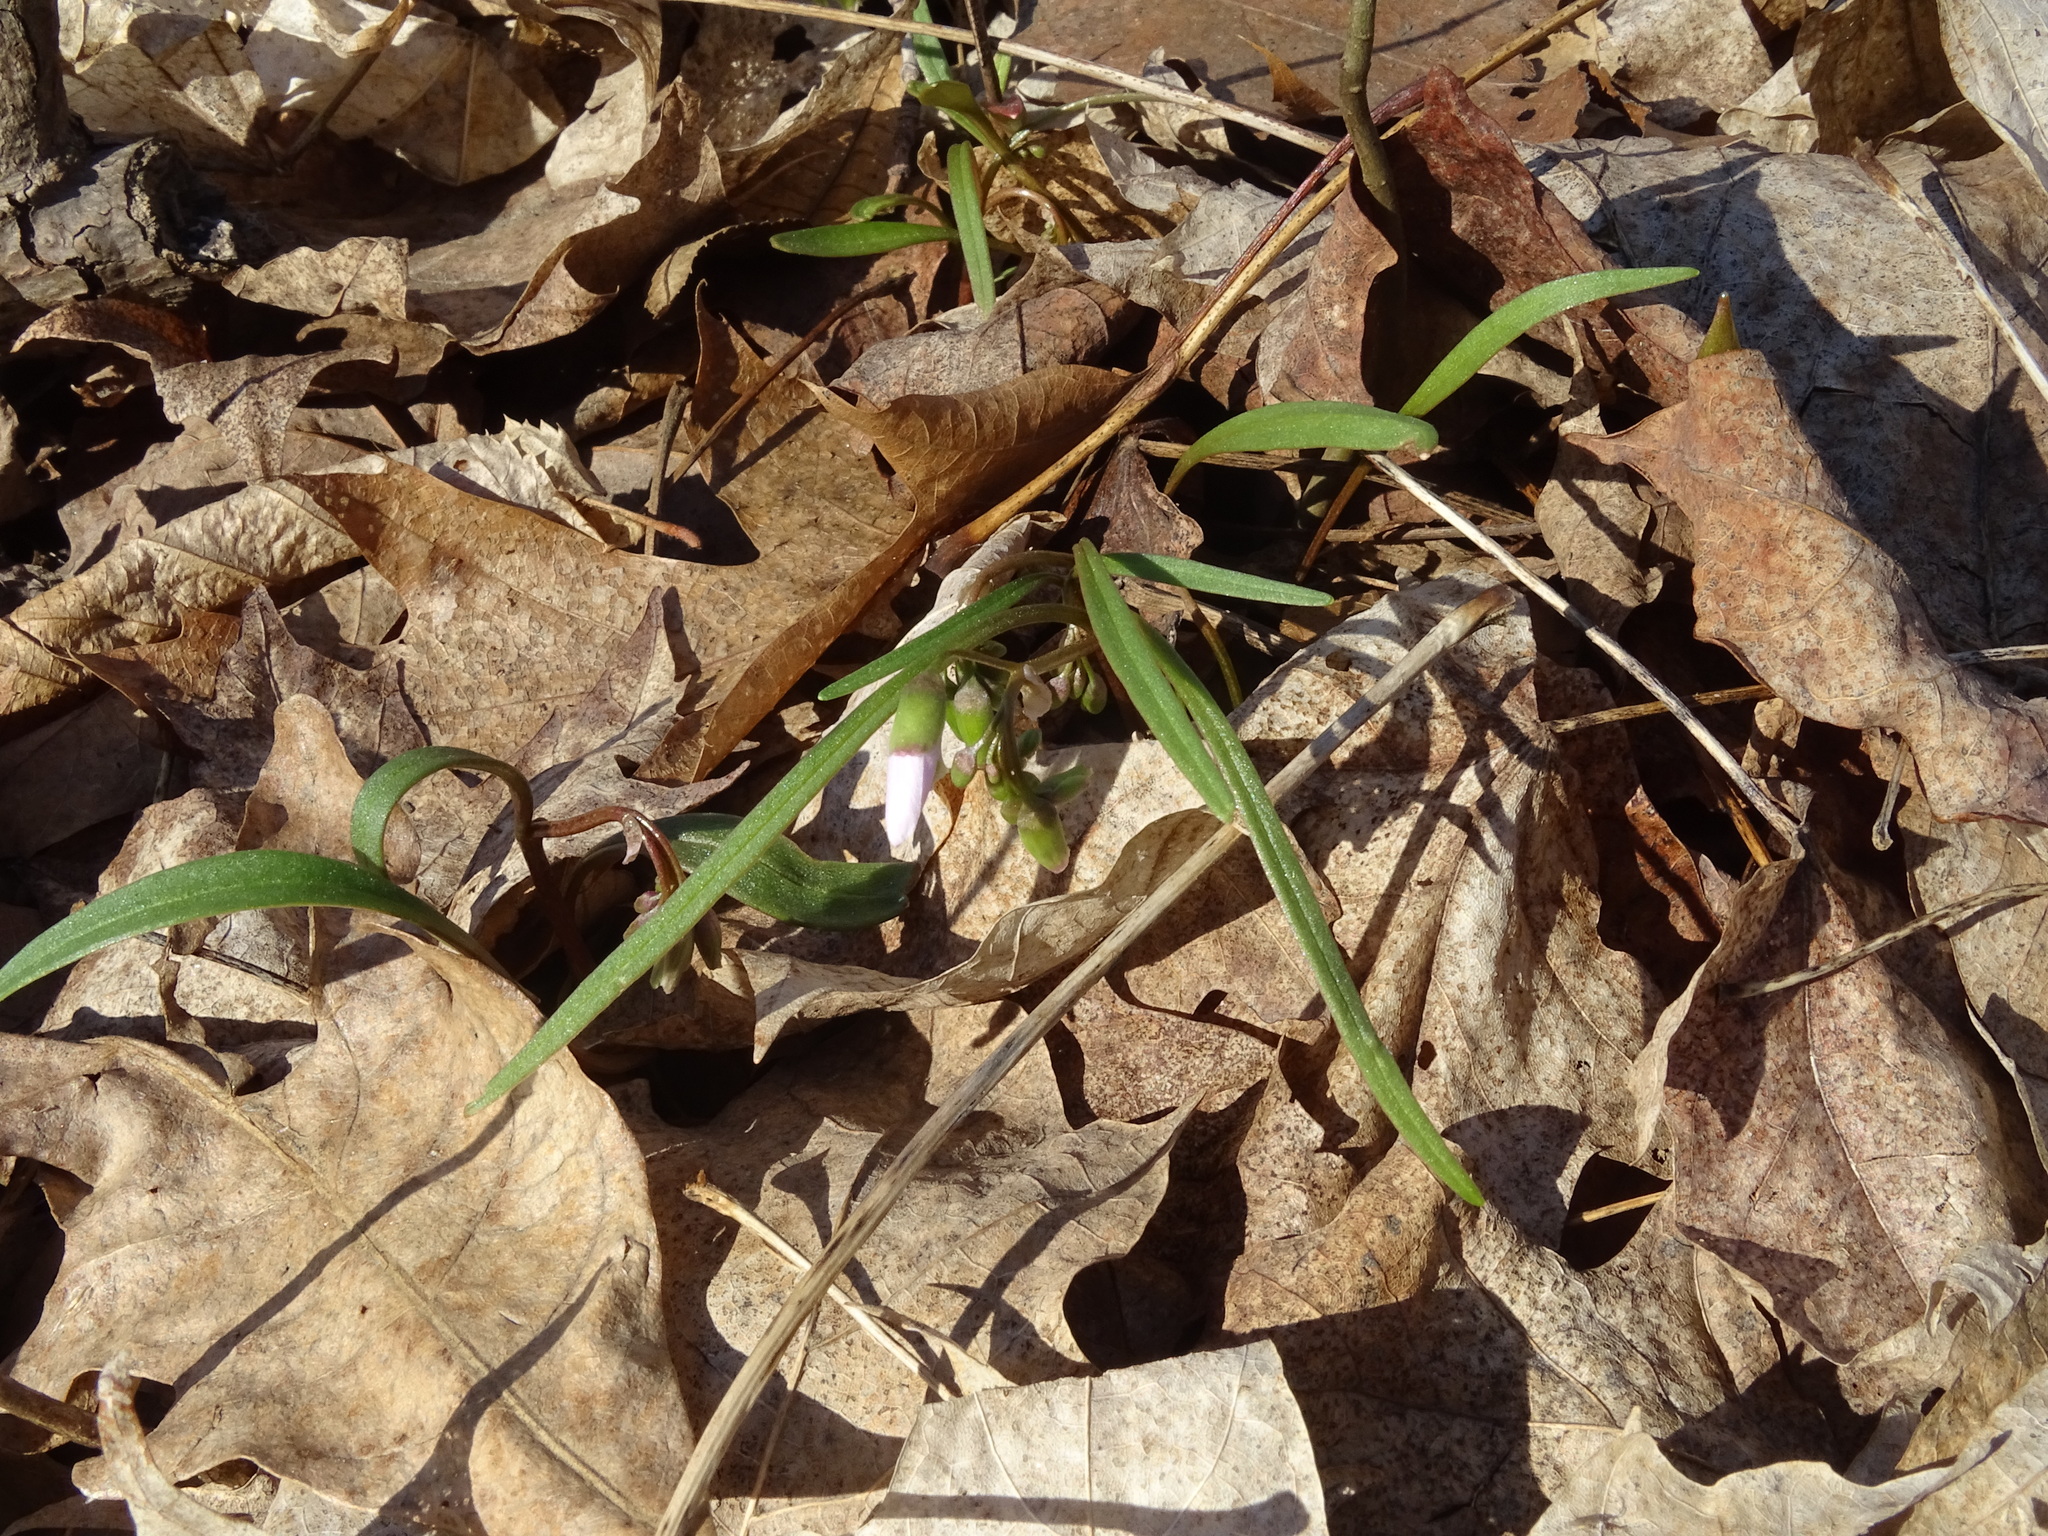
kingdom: Plantae
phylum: Tracheophyta
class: Magnoliopsida
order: Caryophyllales
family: Montiaceae
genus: Claytonia
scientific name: Claytonia virginica
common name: Virginia springbeauty
